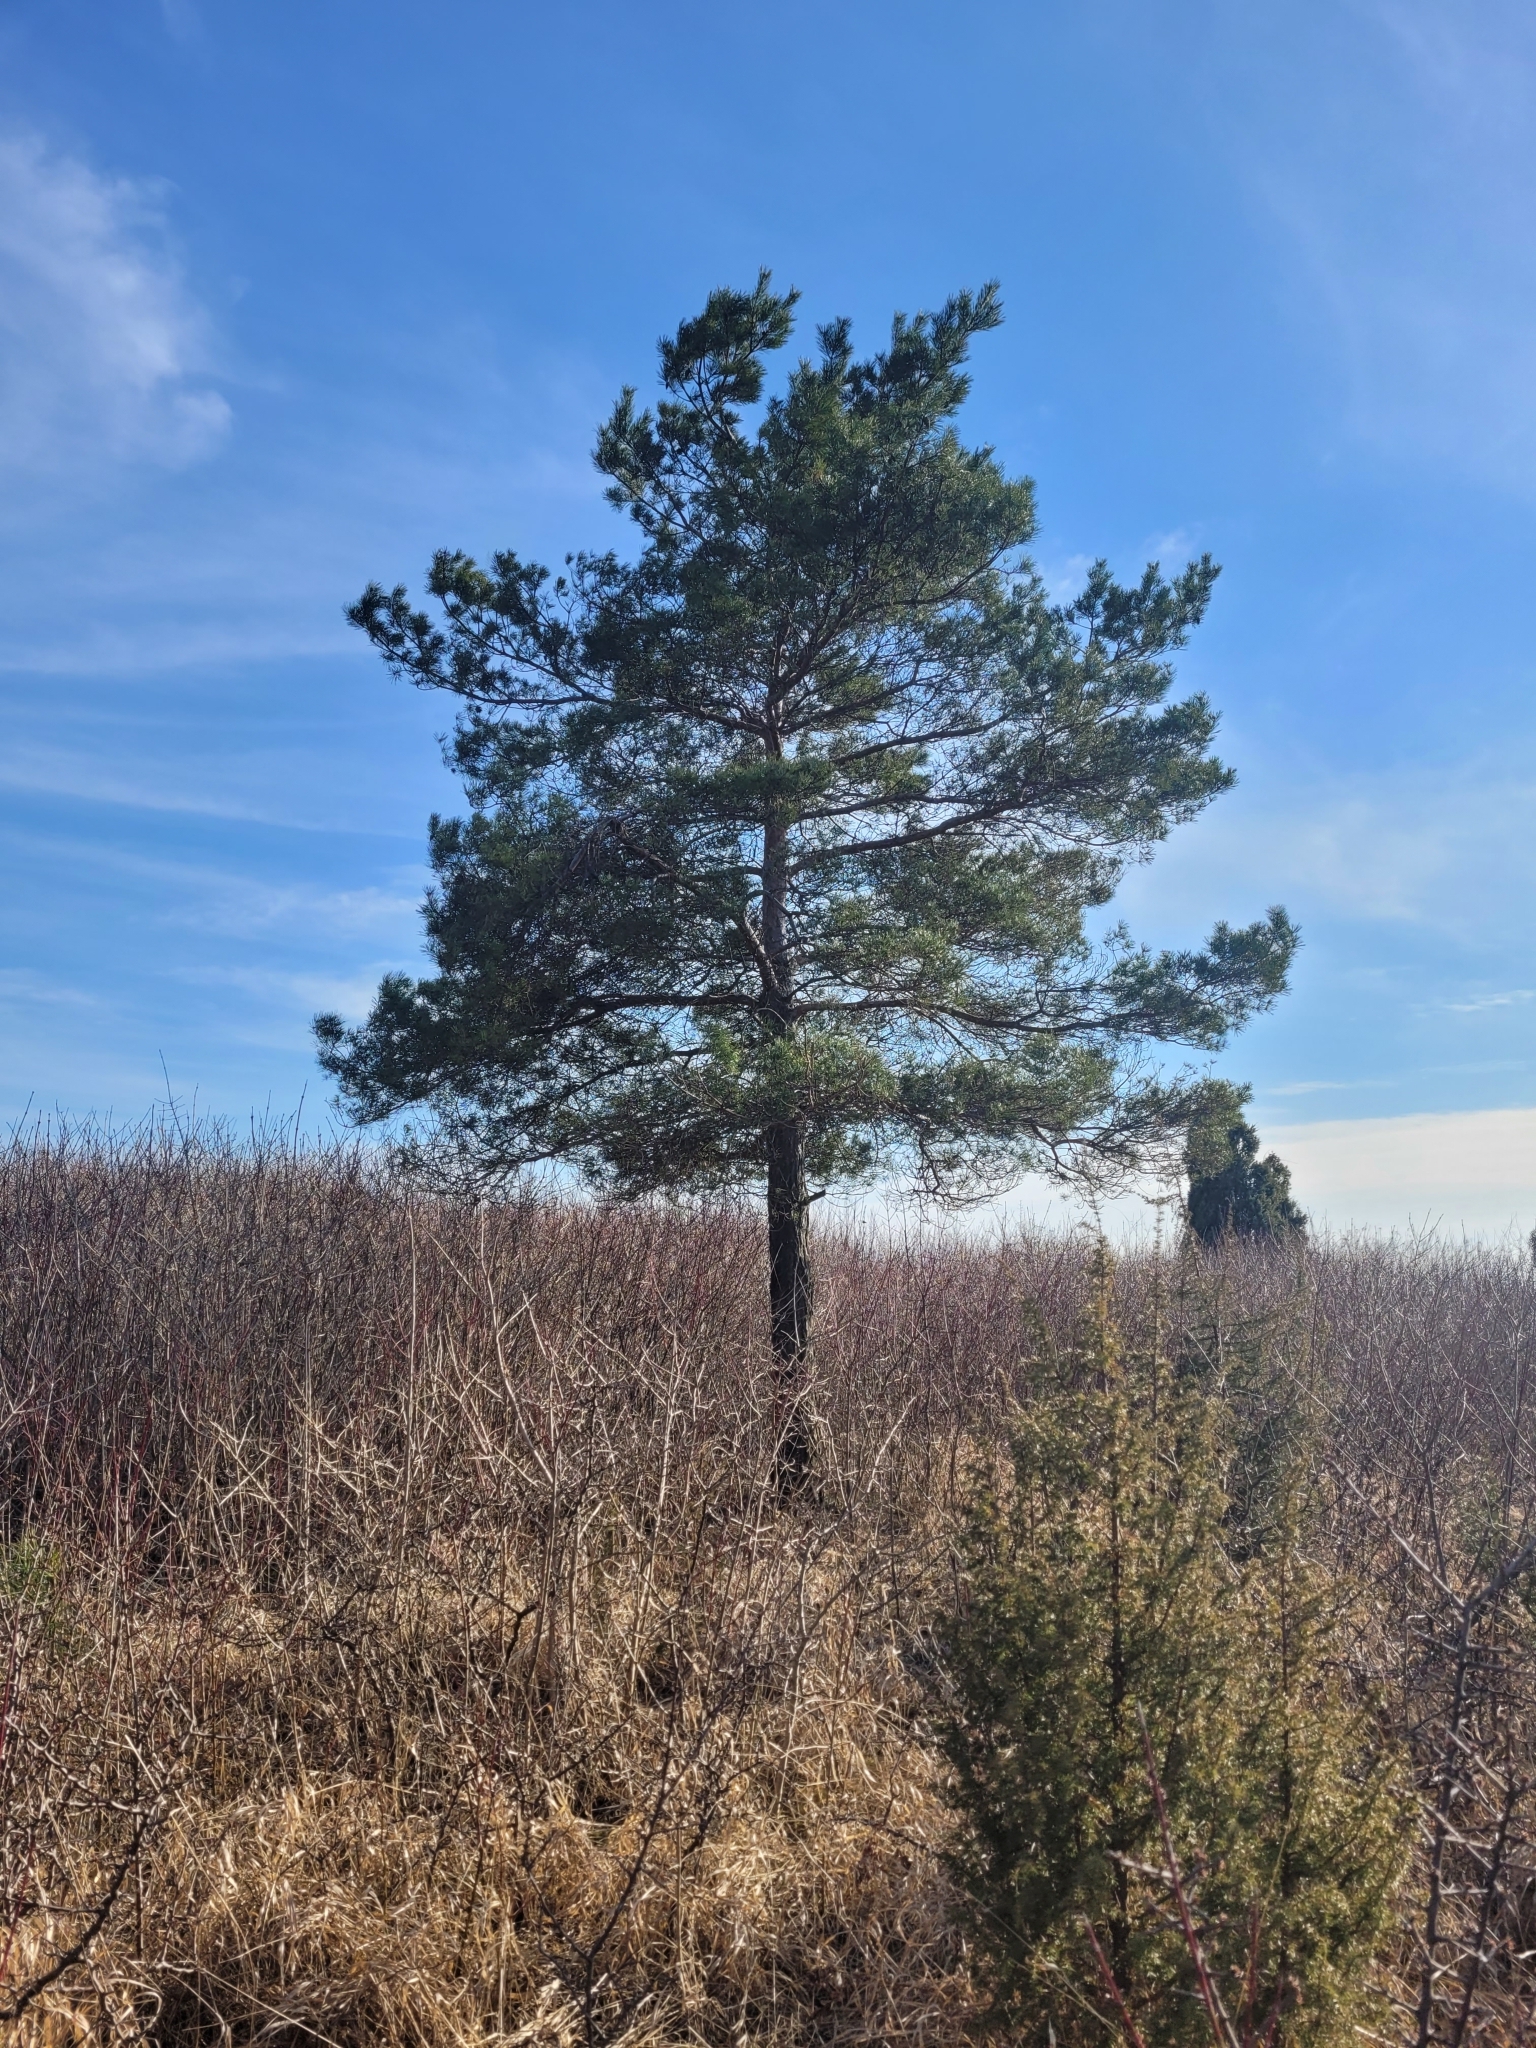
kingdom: Plantae
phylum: Tracheophyta
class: Pinopsida
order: Pinales
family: Pinaceae
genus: Pinus
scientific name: Pinus sylvestris
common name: Scots pine
